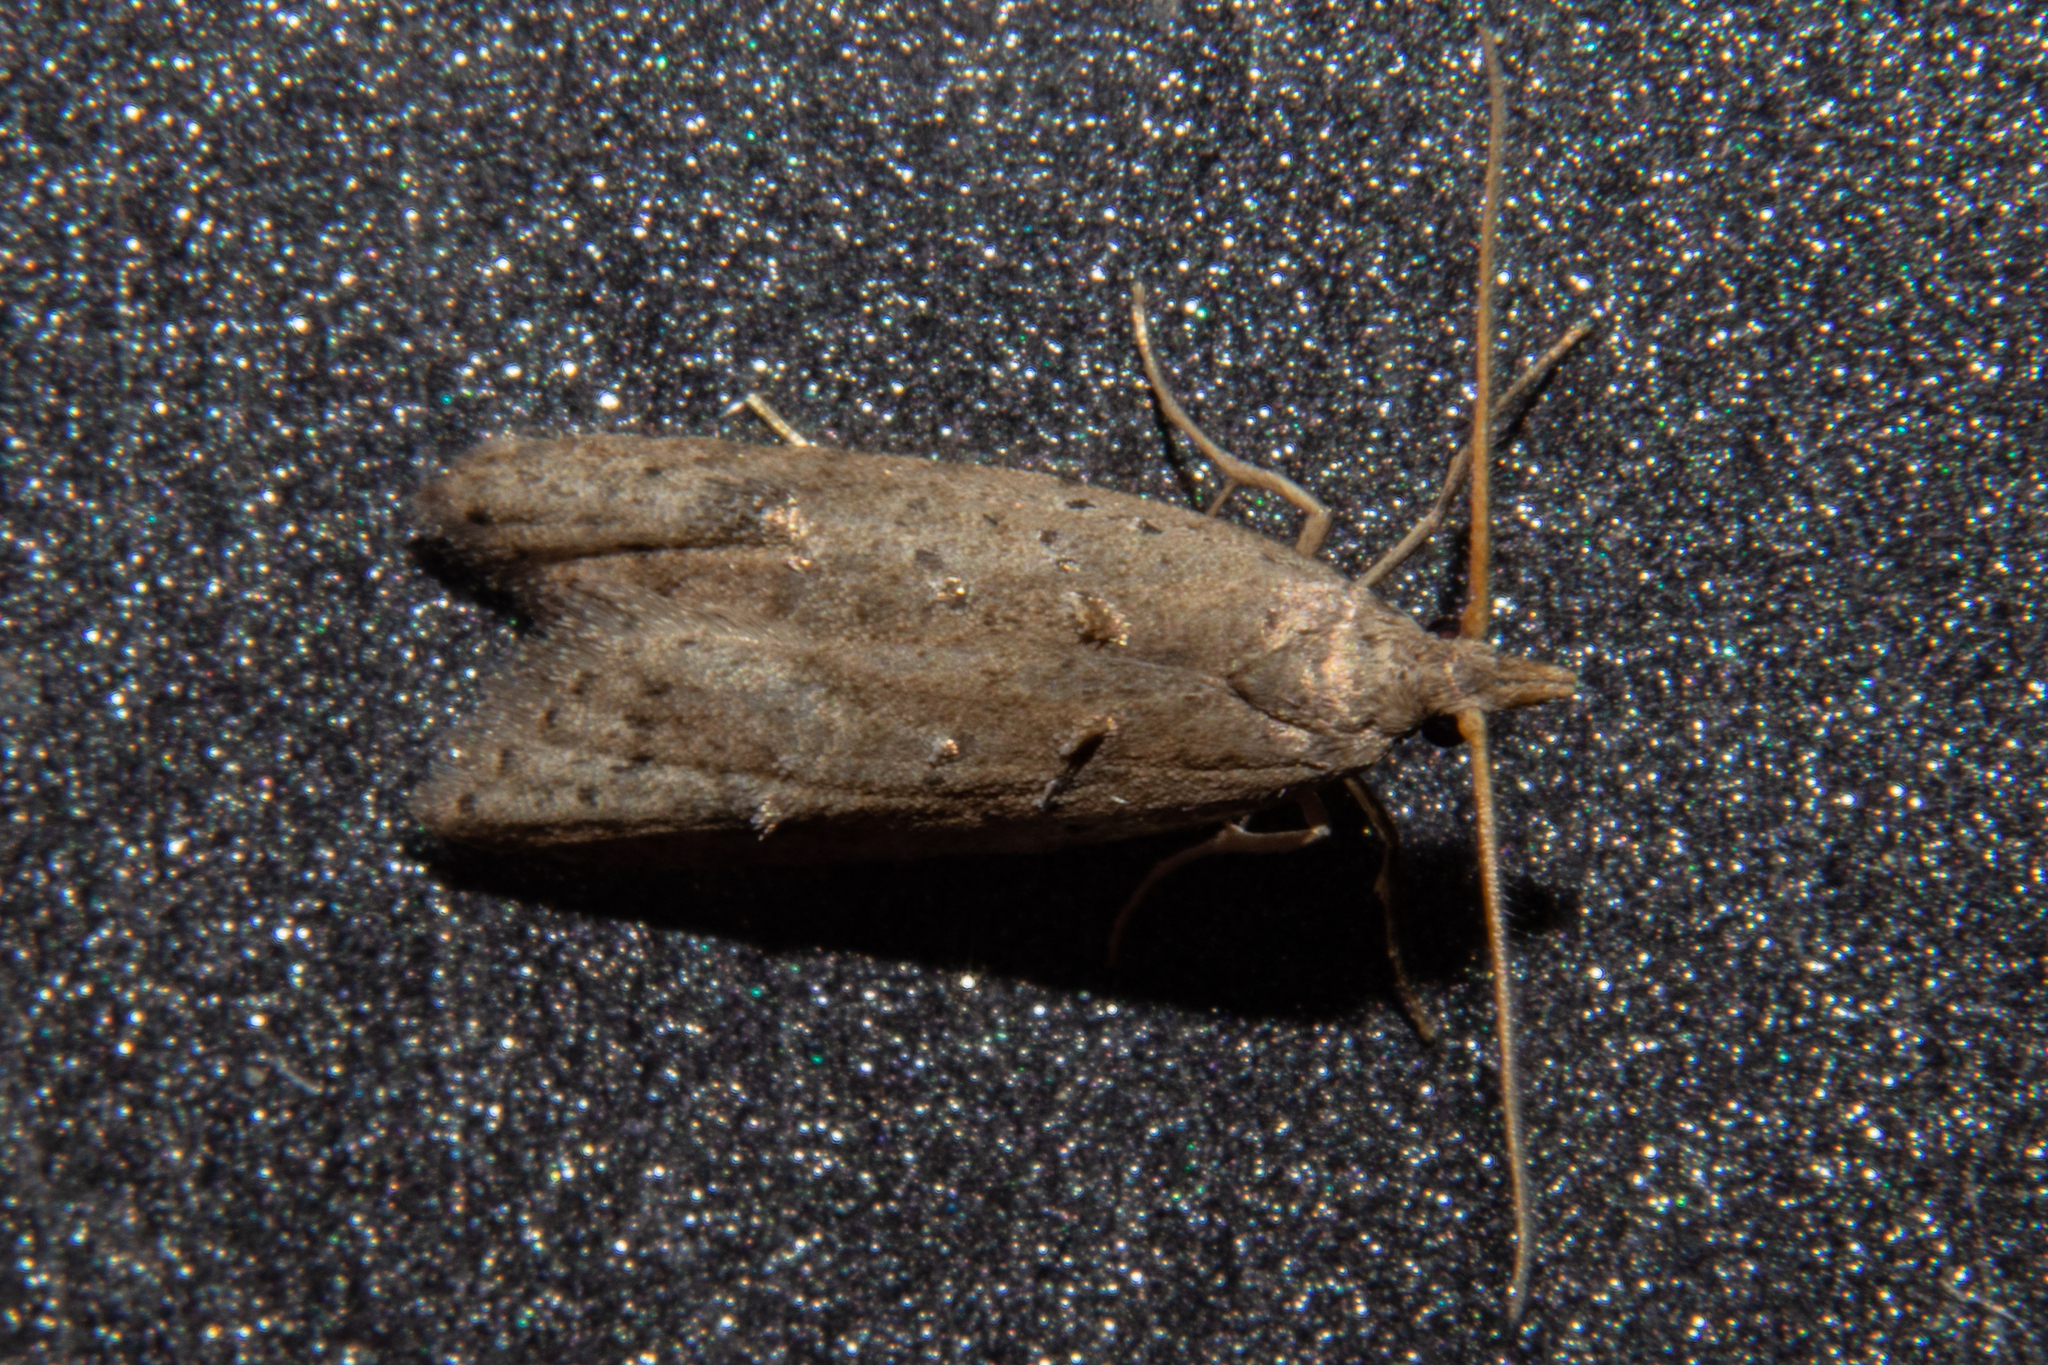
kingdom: Animalia
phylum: Arthropoda
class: Insecta
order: Lepidoptera
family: Carposinidae
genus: Carposina
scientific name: Carposina rubophaga
